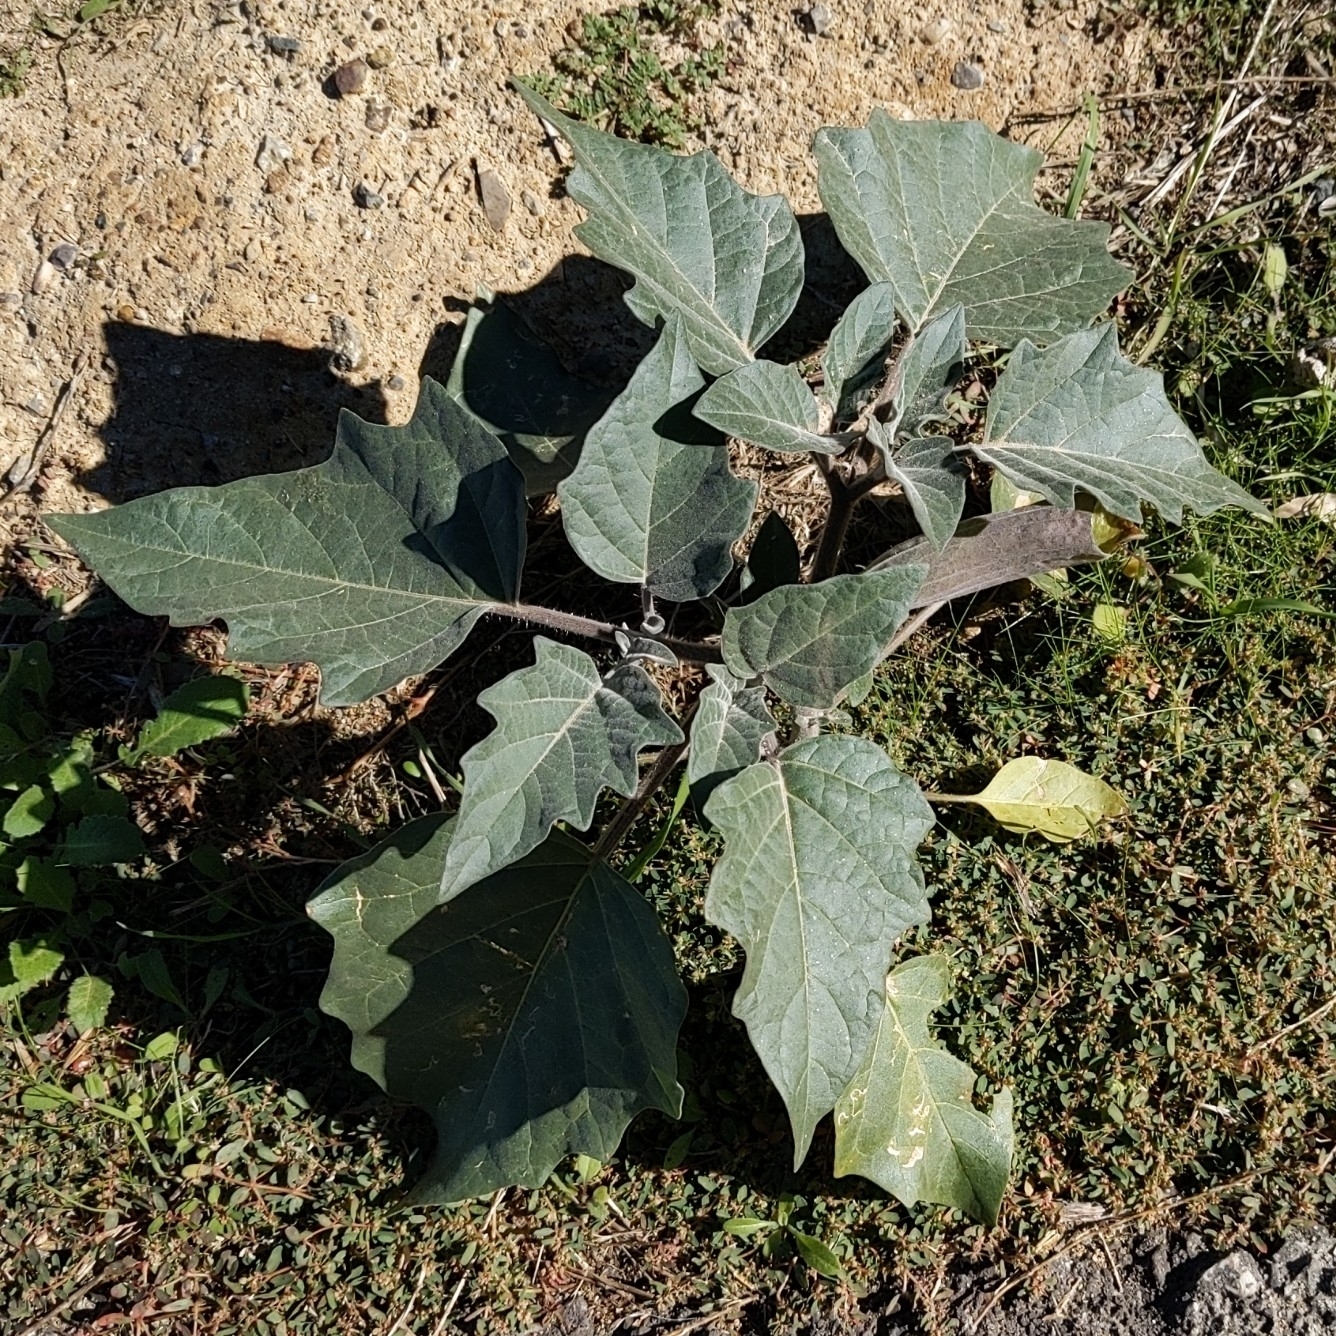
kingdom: Plantae
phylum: Tracheophyta
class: Magnoliopsida
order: Solanales
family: Solanaceae
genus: Datura
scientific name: Datura wrightii
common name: Sacred thorn-apple
